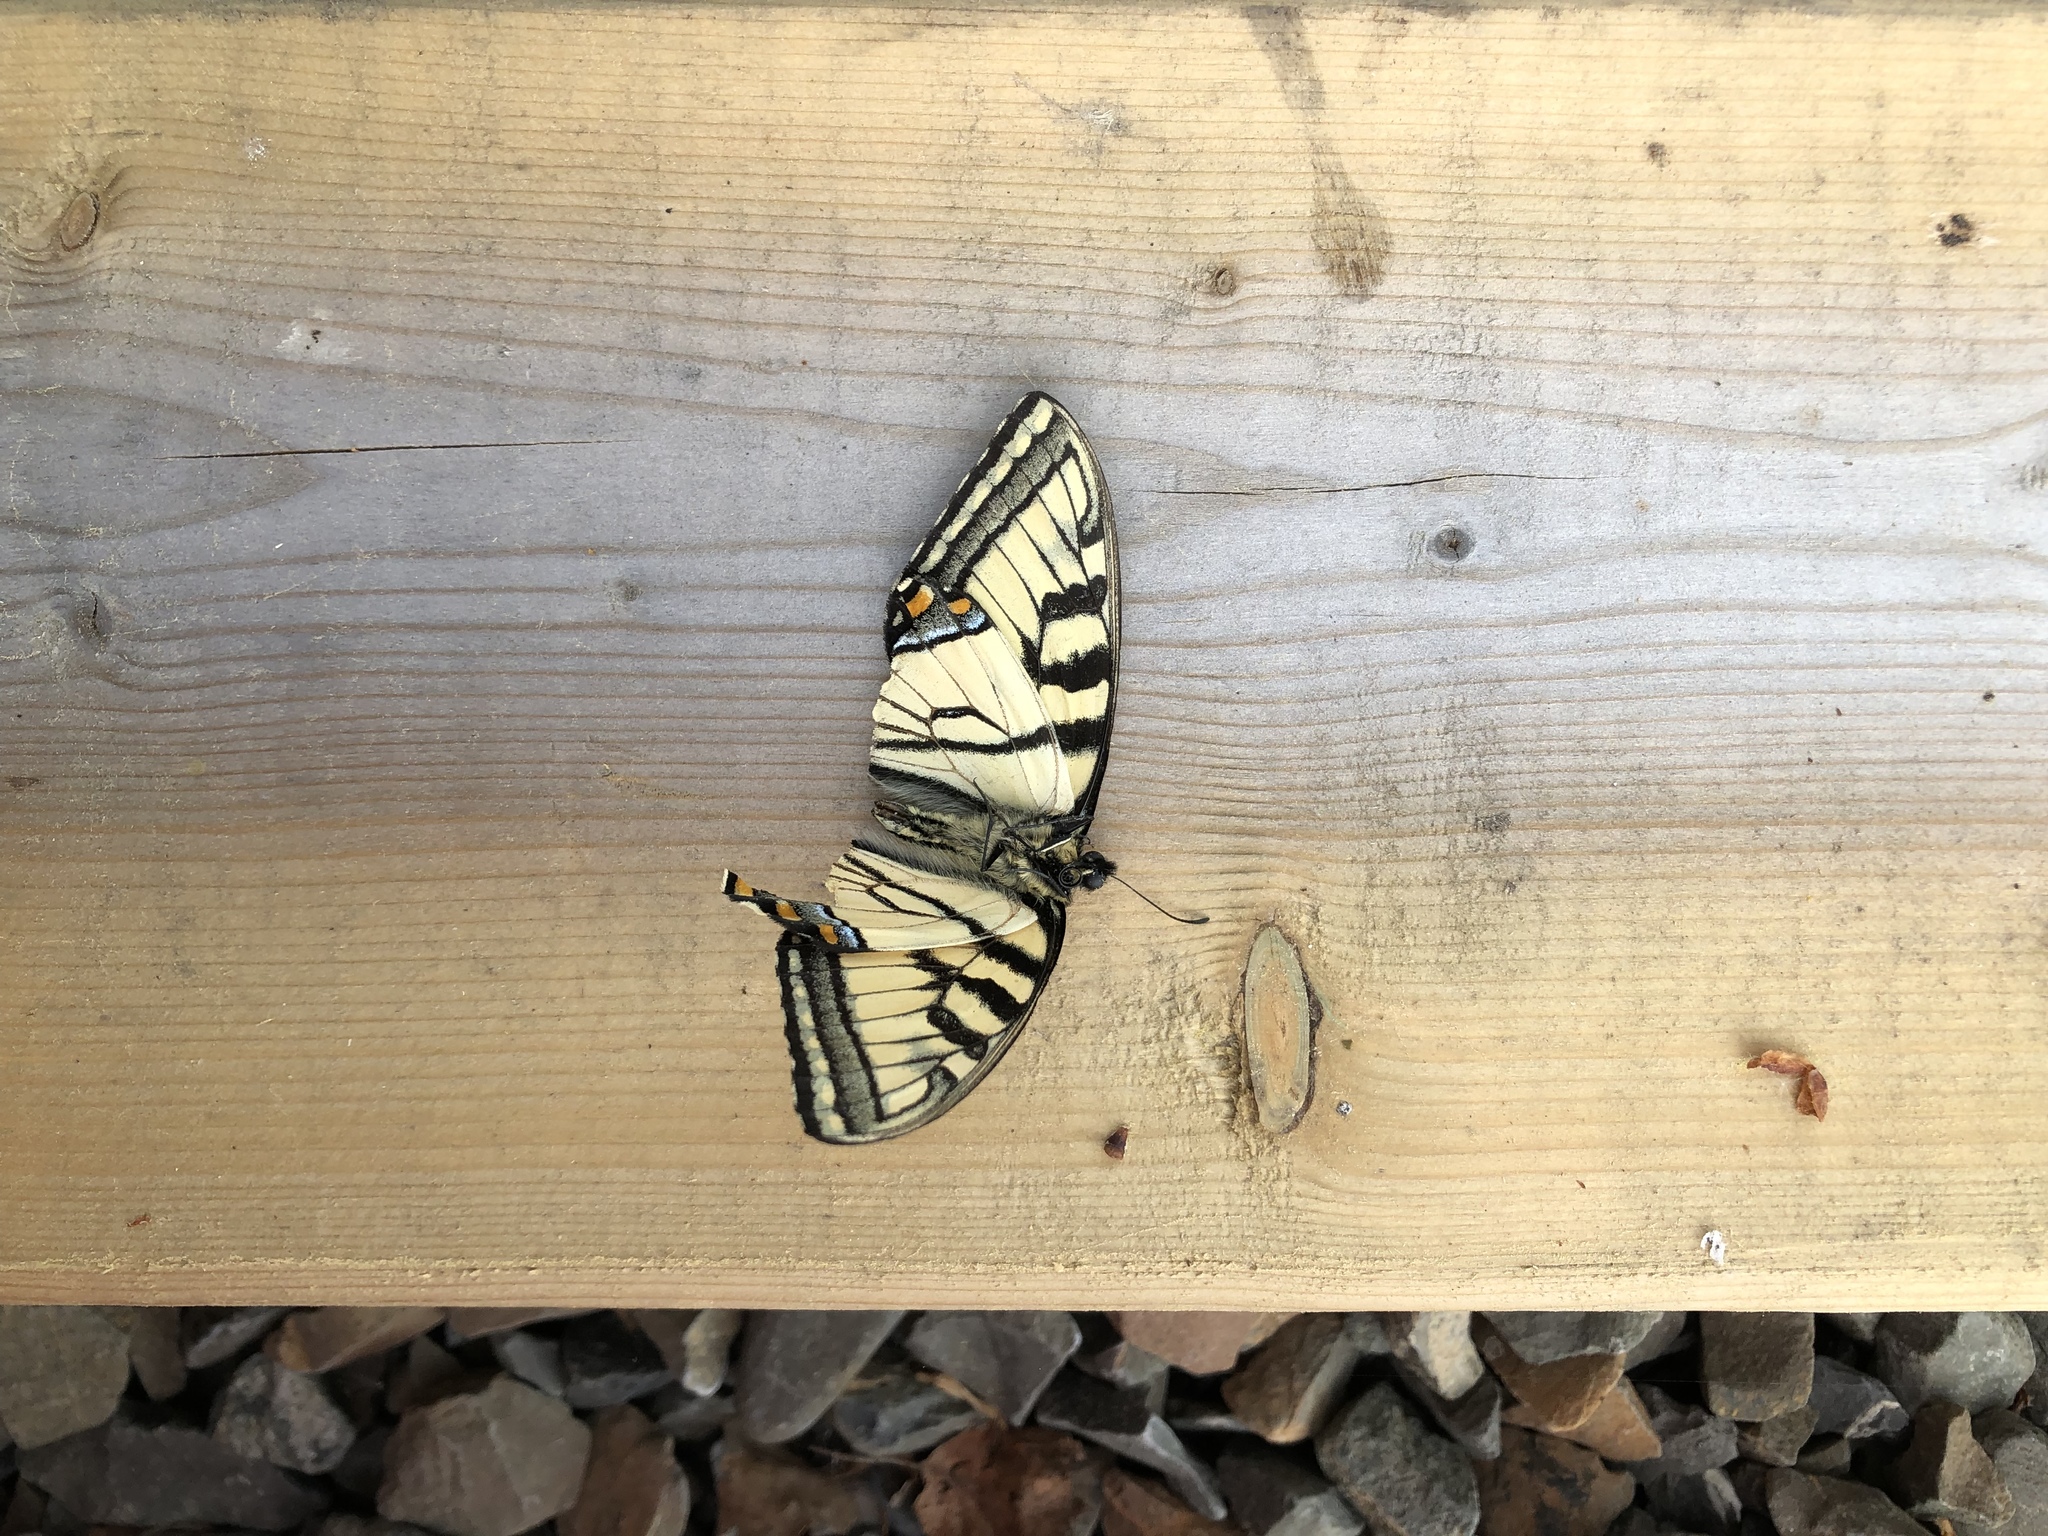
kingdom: Animalia
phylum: Arthropoda
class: Insecta
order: Lepidoptera
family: Papilionidae
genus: Papilio
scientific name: Papilio canadensis
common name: Canadian tiger swallowtail
